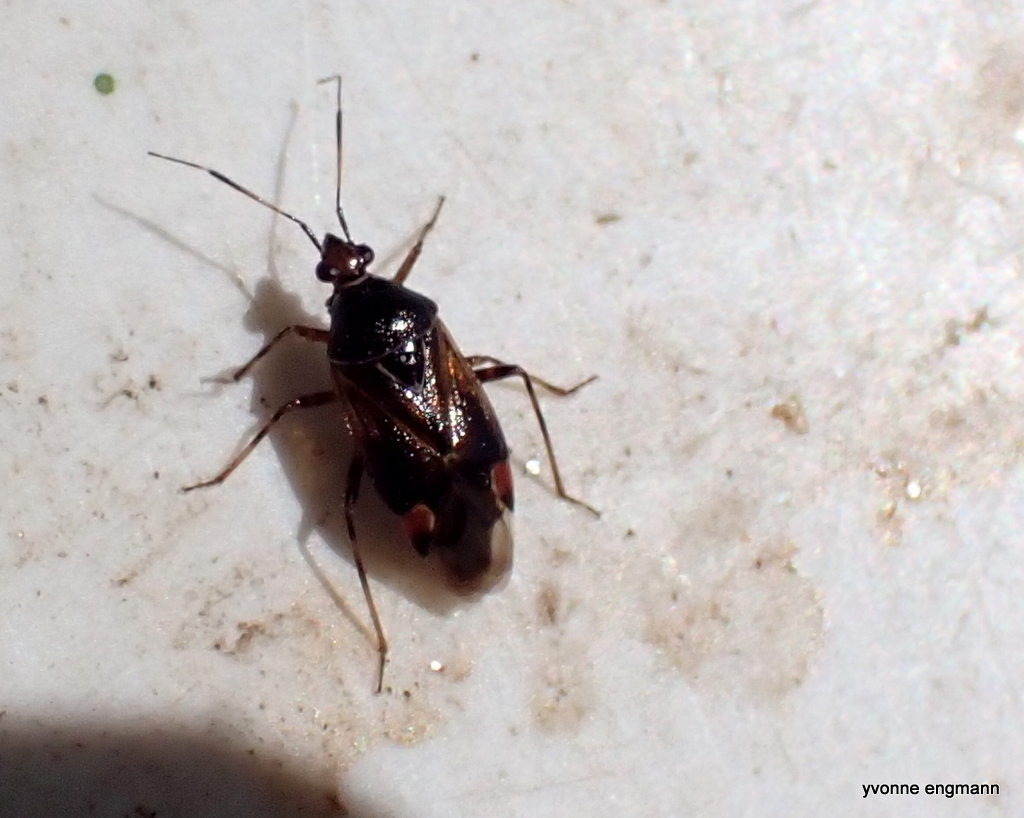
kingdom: Animalia
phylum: Arthropoda
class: Insecta
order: Hemiptera
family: Miridae
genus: Deraeocoris
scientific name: Deraeocoris flavilinea
